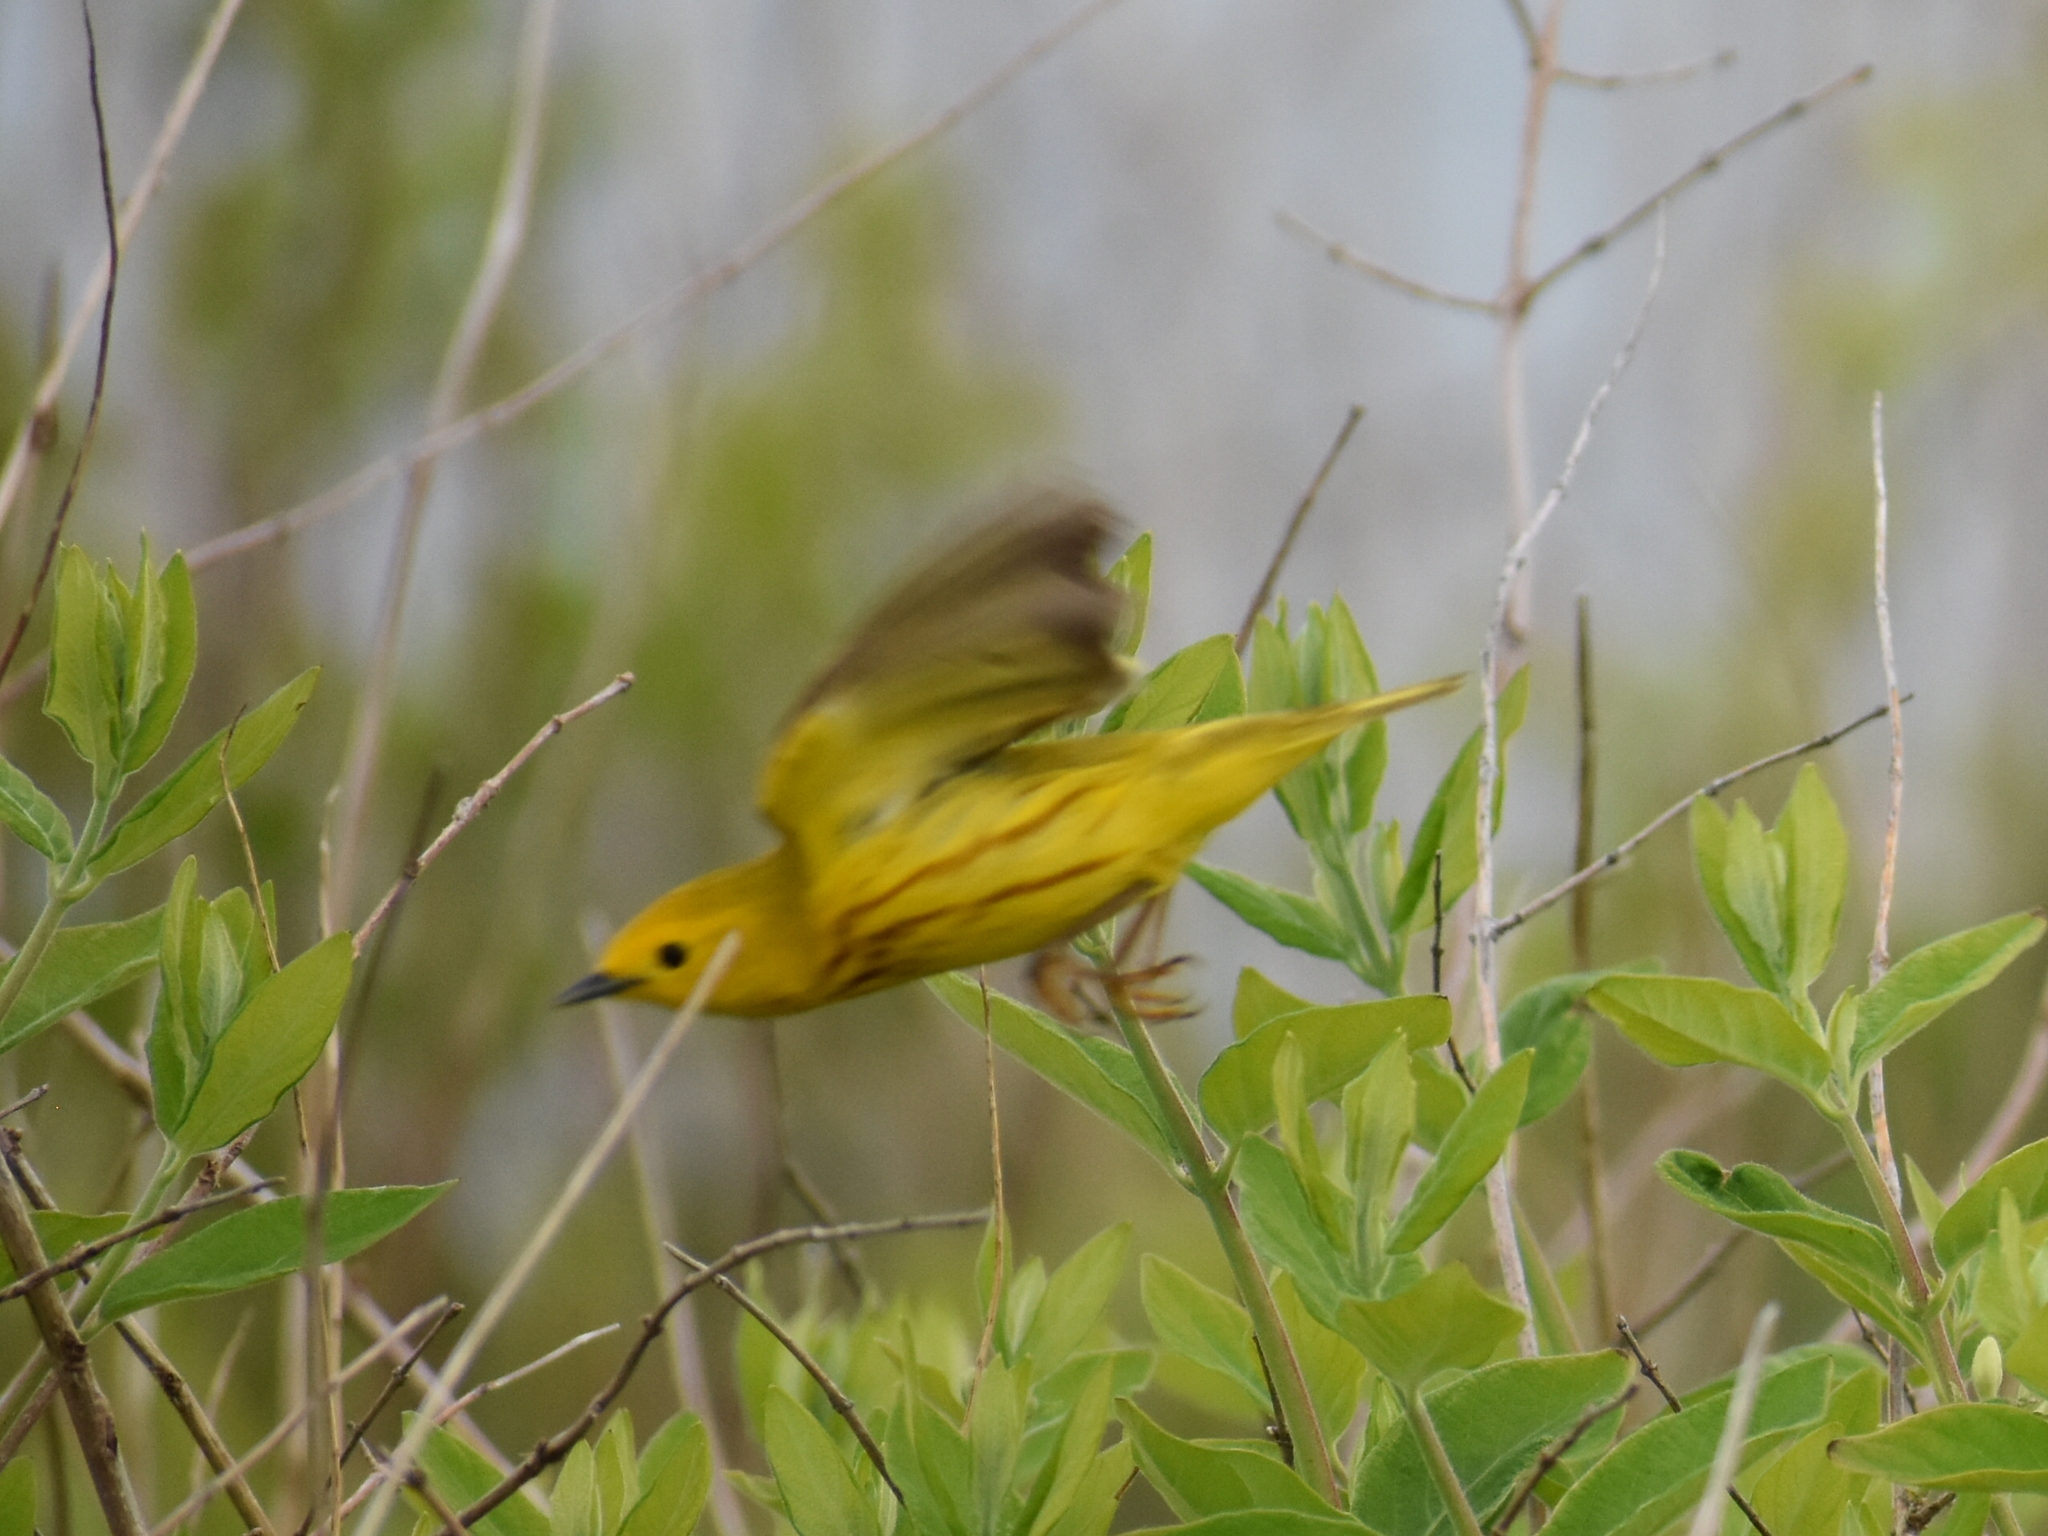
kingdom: Animalia
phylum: Chordata
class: Aves
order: Passeriformes
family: Parulidae
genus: Setophaga
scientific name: Setophaga petechia
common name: Yellow warbler
